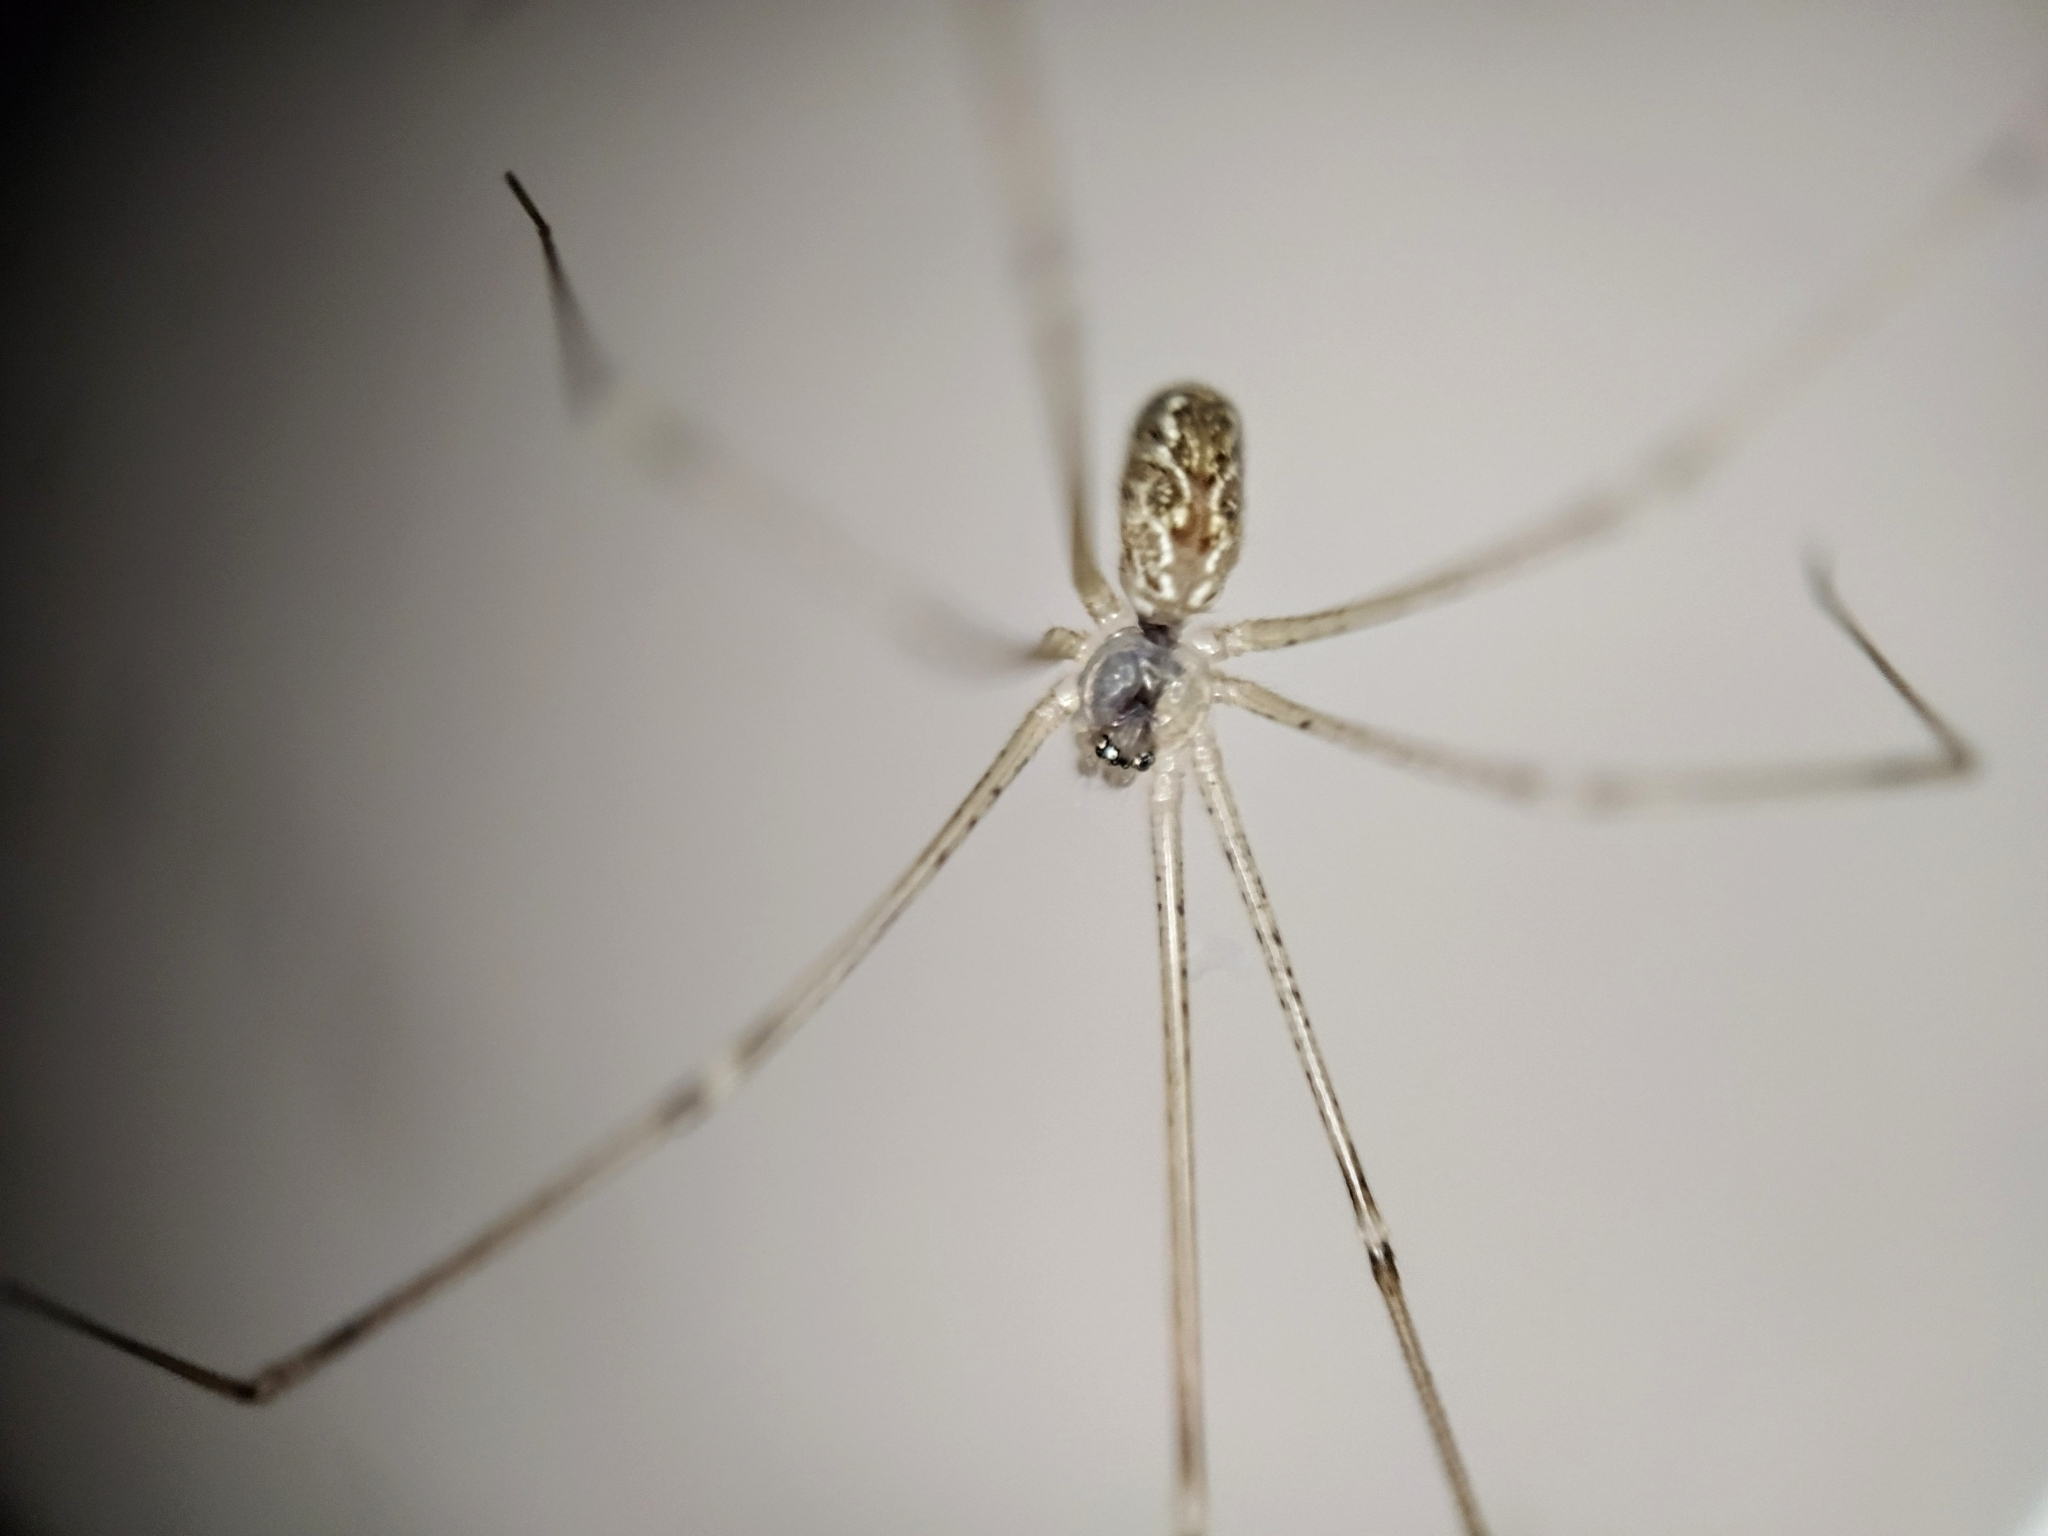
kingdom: Animalia
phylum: Arthropoda
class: Arachnida
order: Araneae
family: Pholcidae
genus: Holocnemus
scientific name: Holocnemus pluchei
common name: Marbled cellar spider
